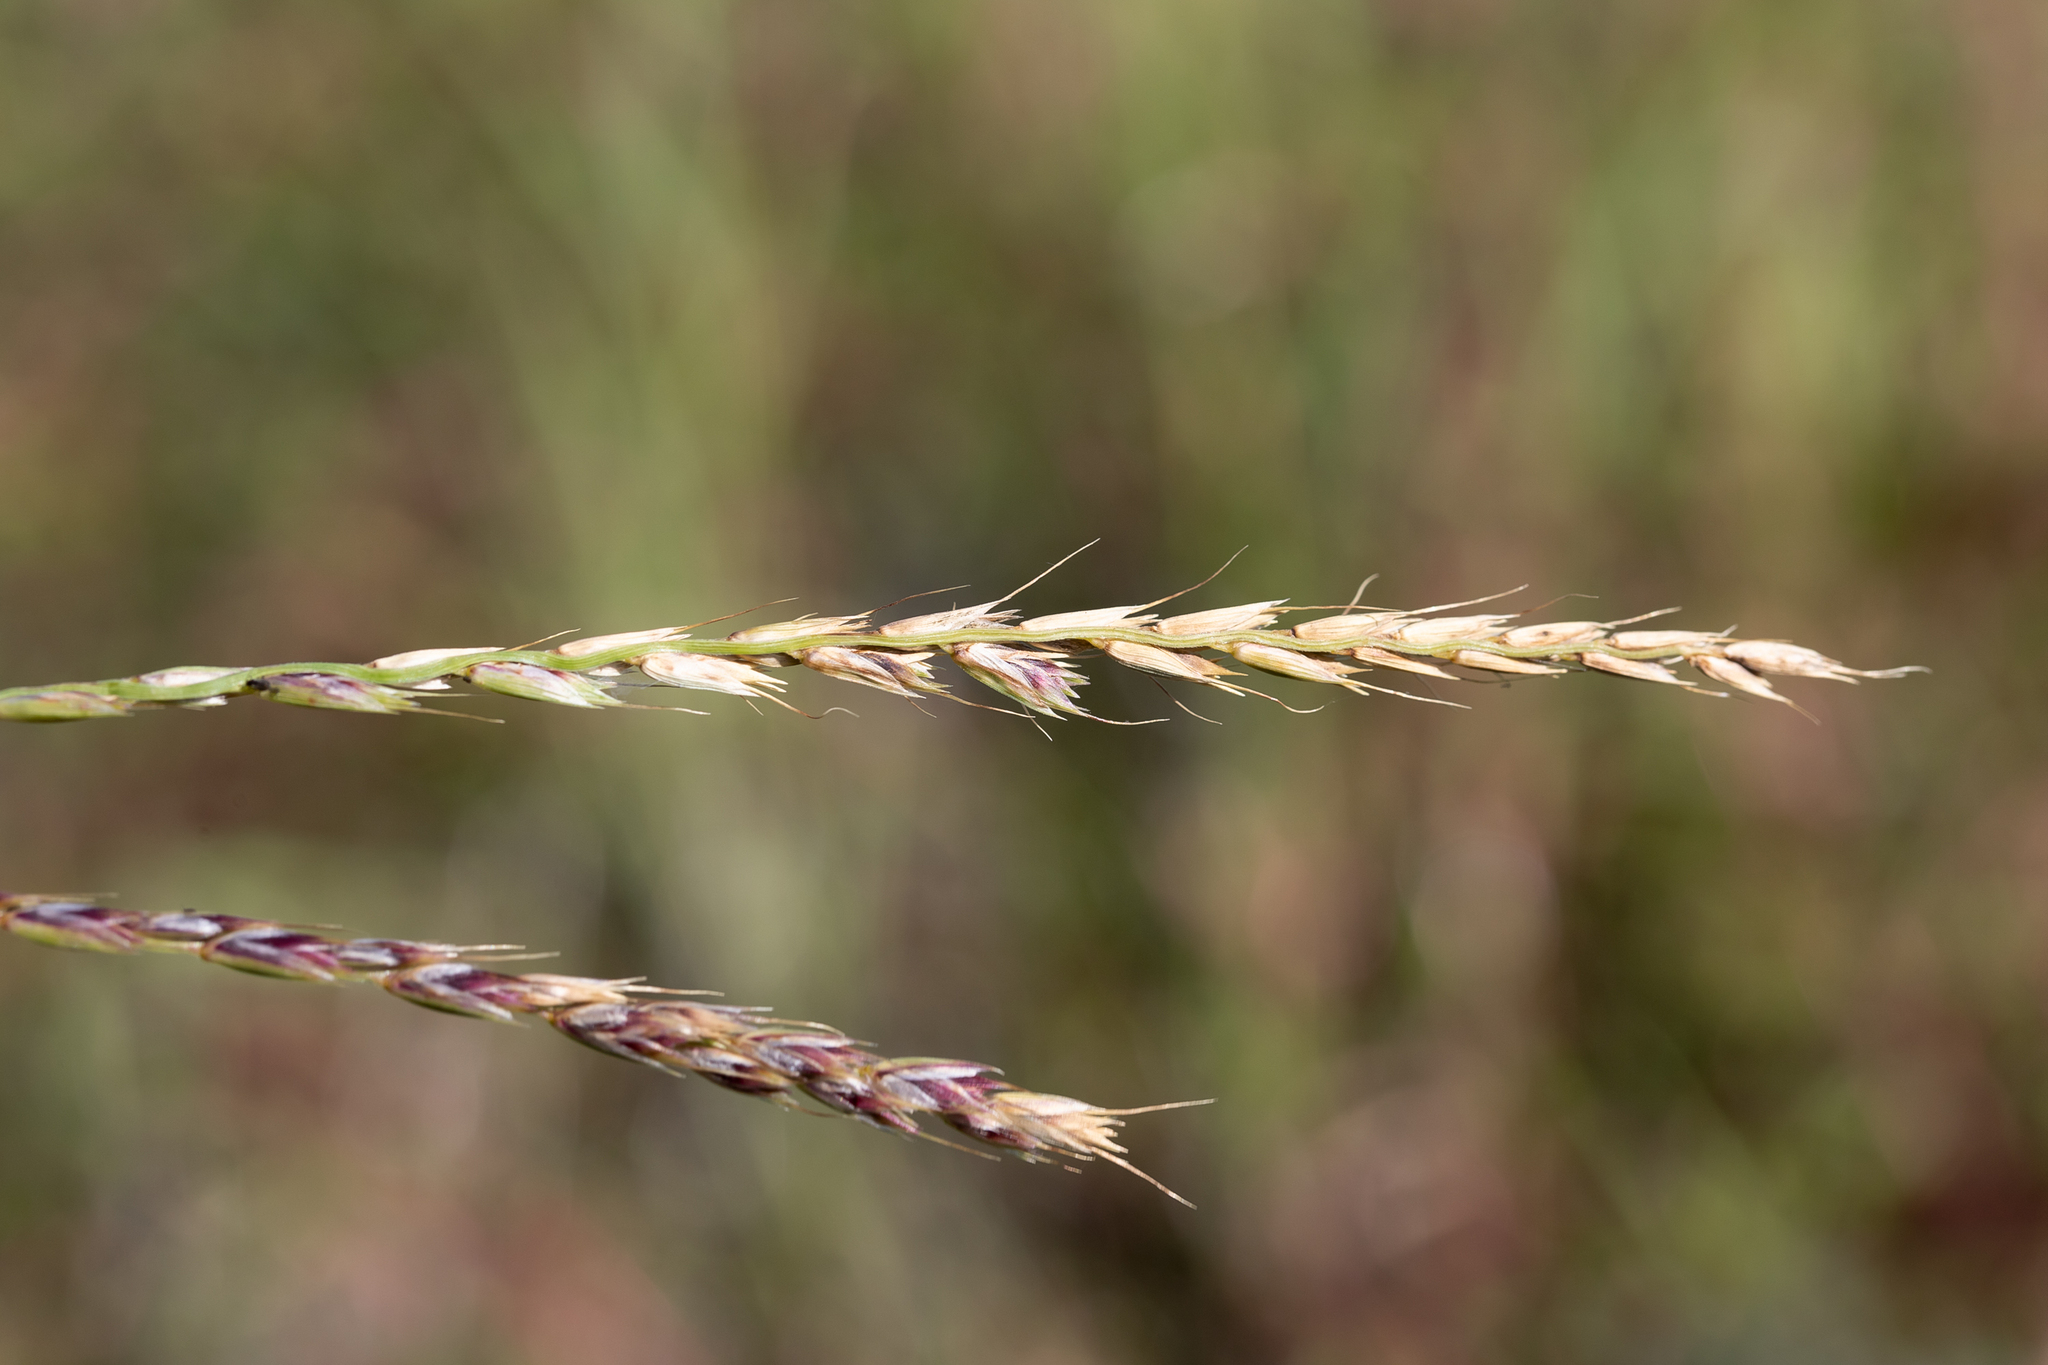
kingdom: Plantae
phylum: Tracheophyta
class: Liliopsida
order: Poales
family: Poaceae
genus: Astrebla
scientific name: Astrebla lappacea
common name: Curly mitchell grass
